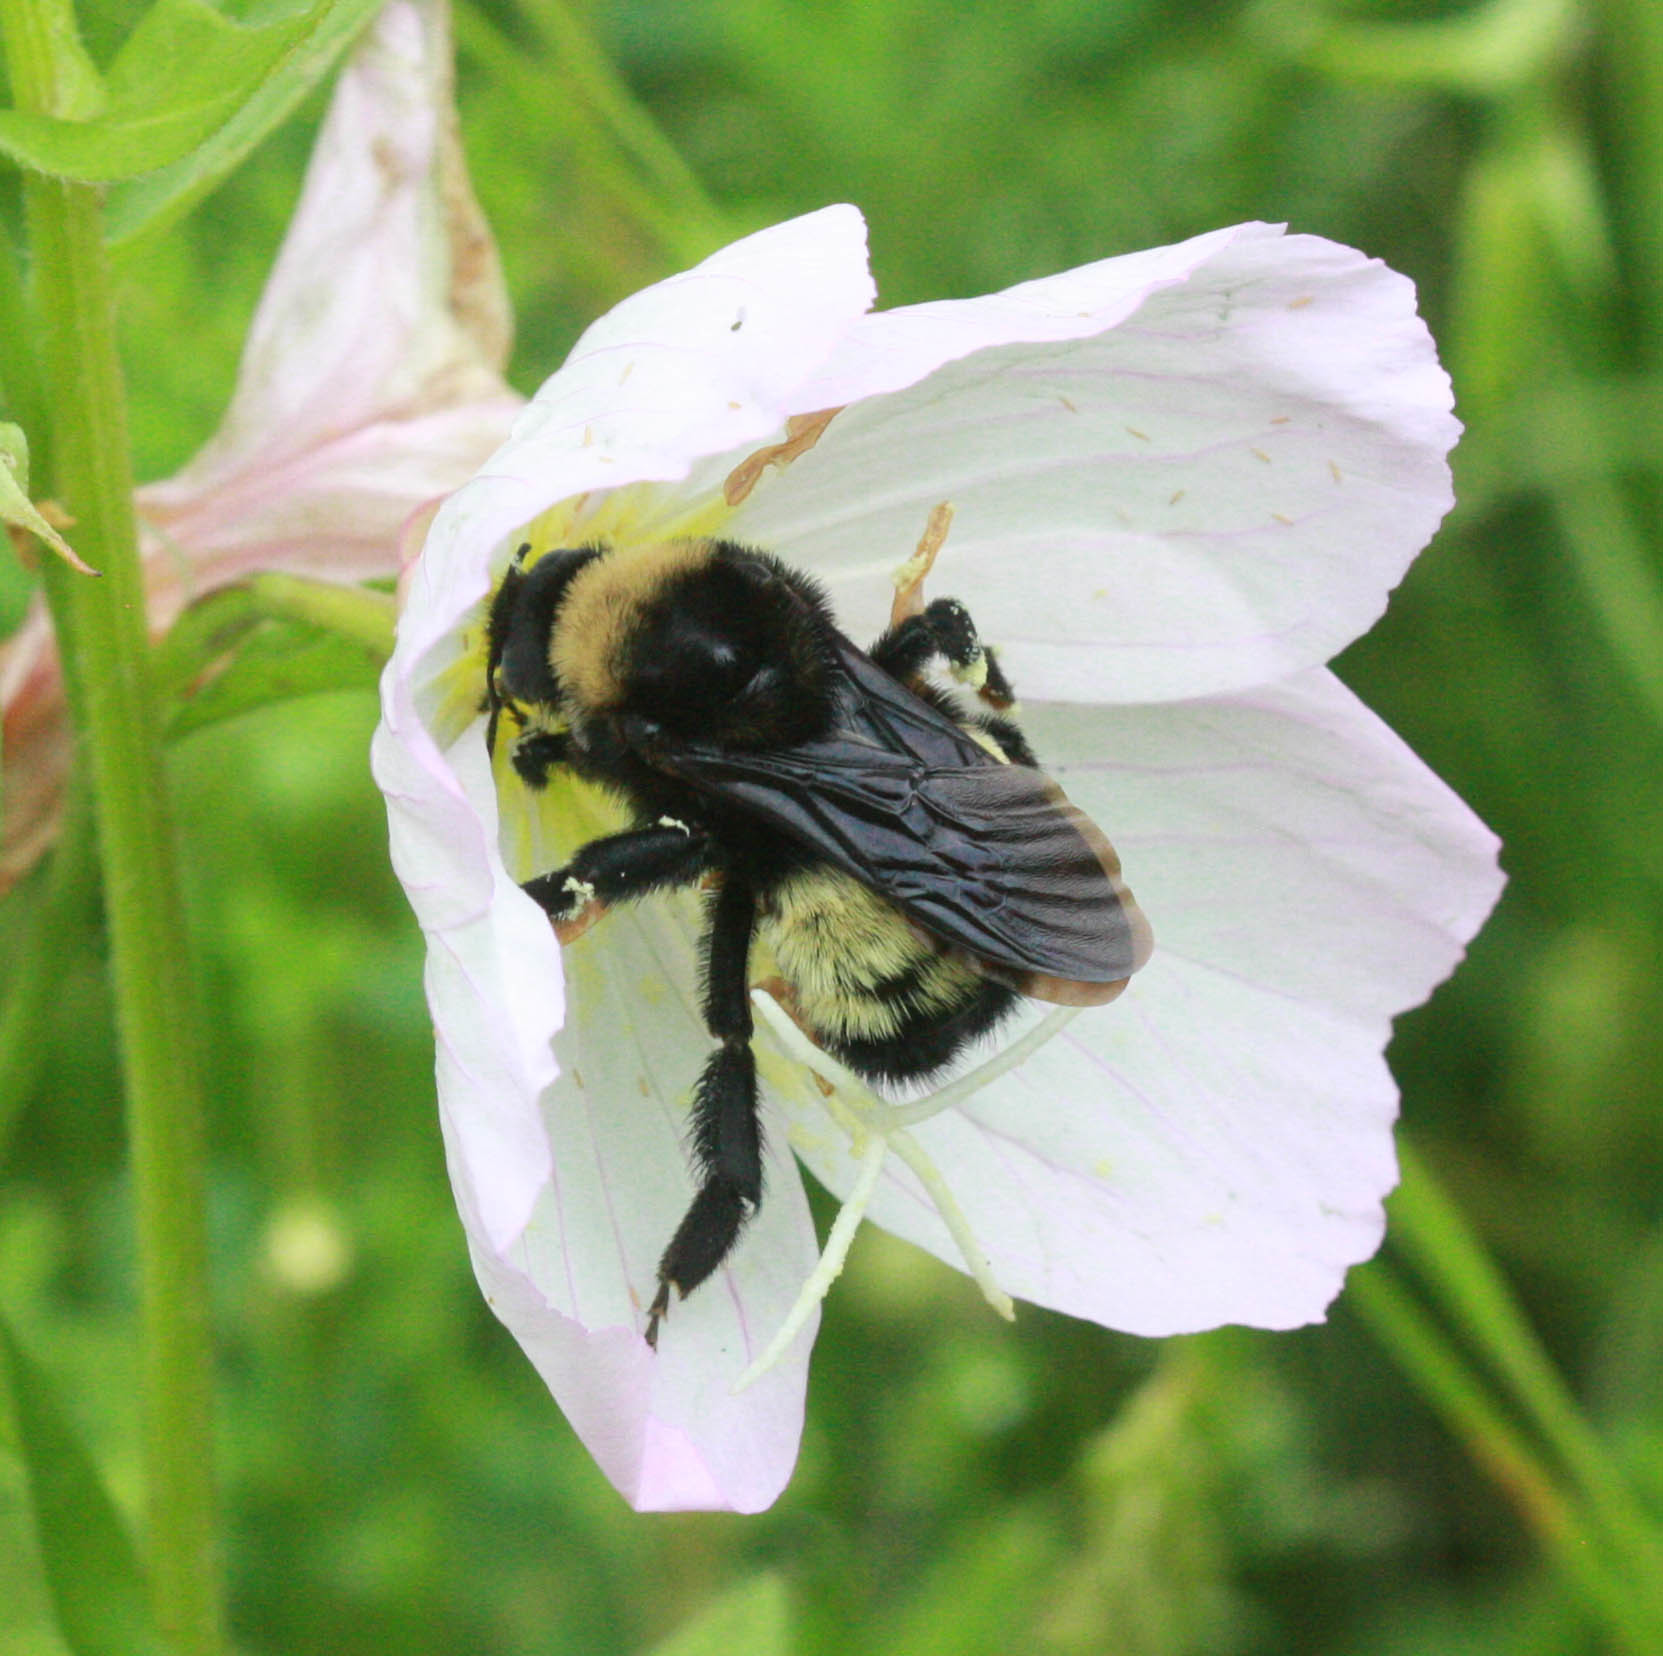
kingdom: Animalia
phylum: Arthropoda
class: Insecta
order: Hymenoptera
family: Apidae
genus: Bombus
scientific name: Bombus pensylvanicus
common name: Bumble bee
